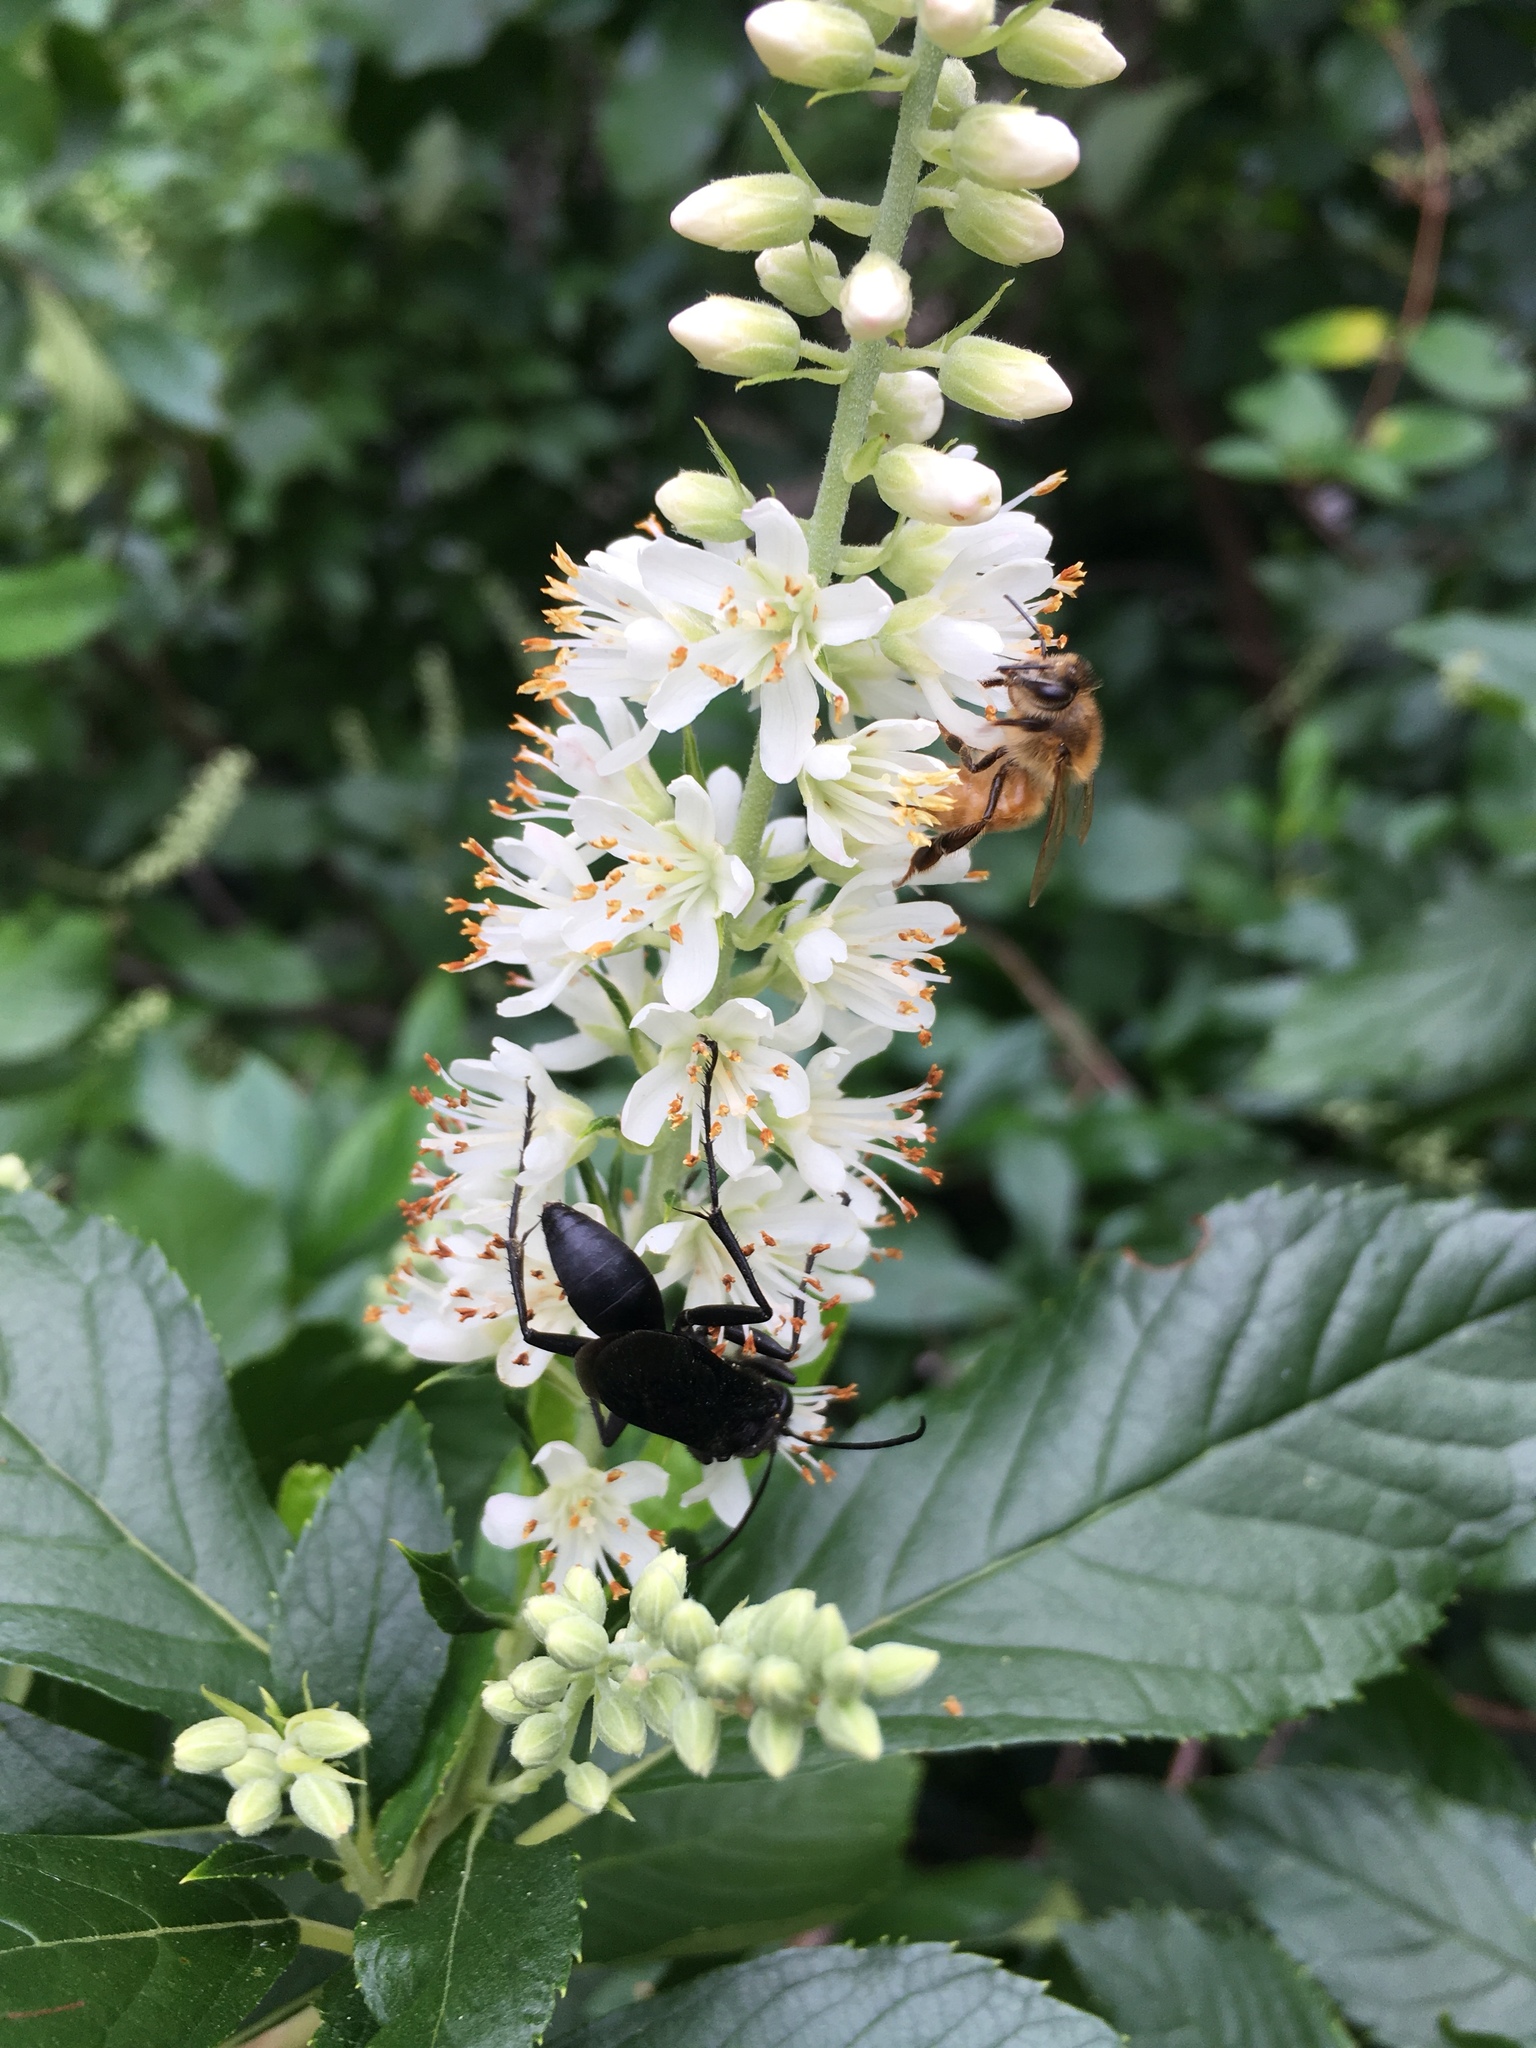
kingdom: Animalia
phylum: Arthropoda
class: Insecta
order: Hymenoptera
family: Sphecidae
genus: Sphex
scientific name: Sphex pensylvanicus
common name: Great black digger wasp
